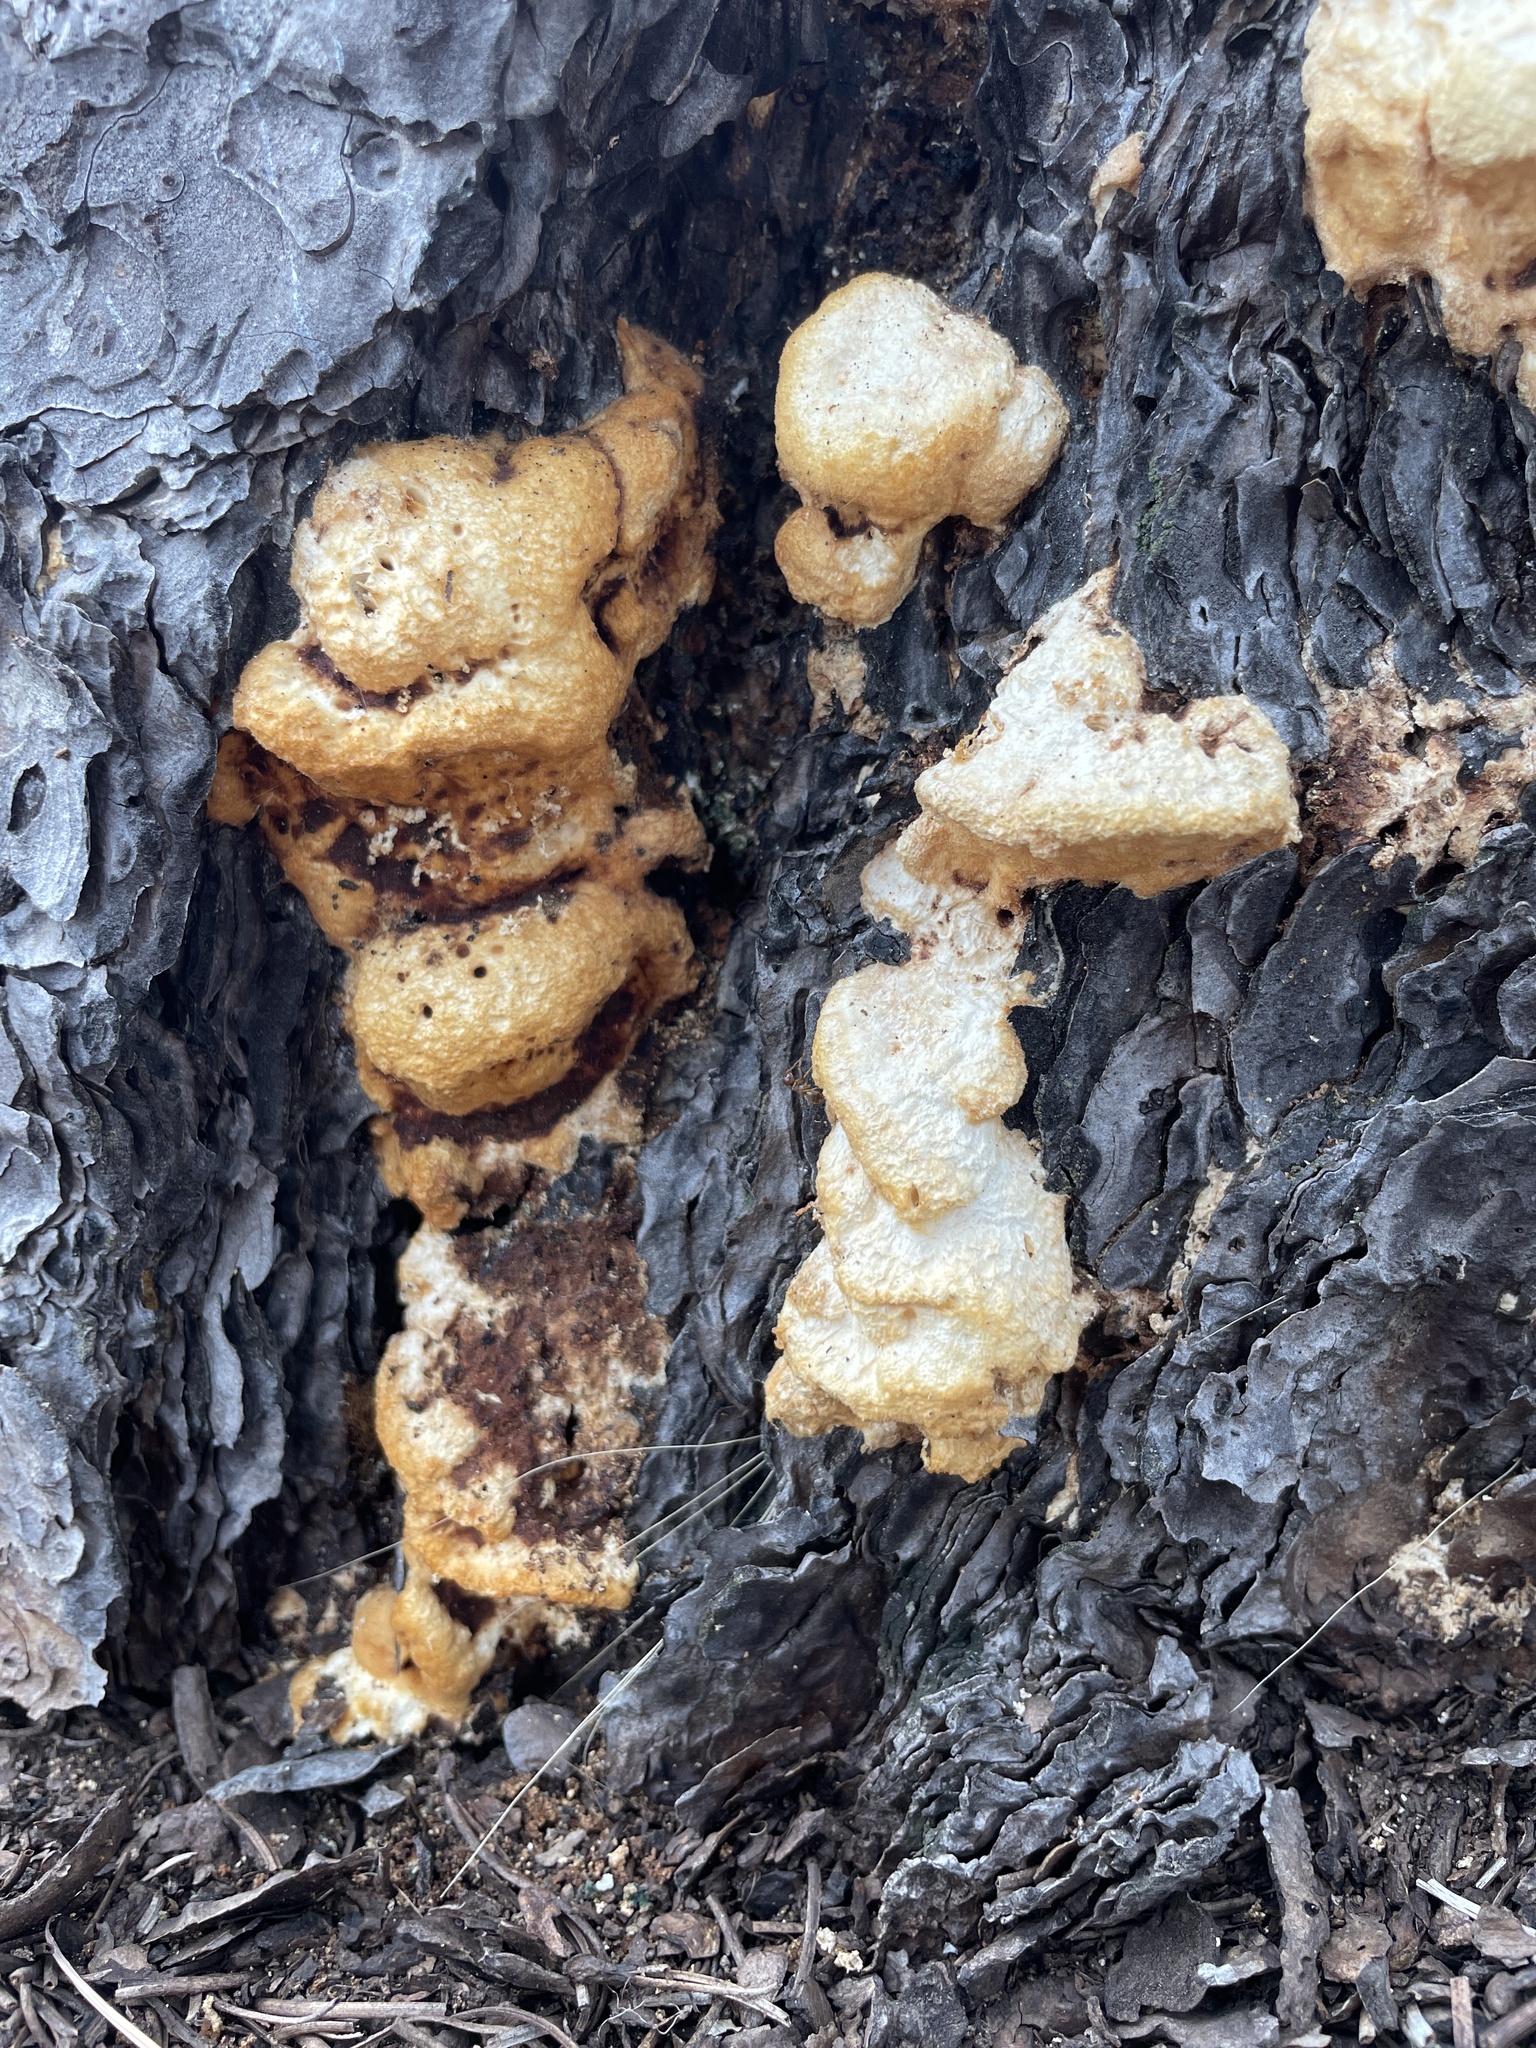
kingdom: Fungi
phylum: Basidiomycota
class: Agaricomycetes
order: Polyporales
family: Polyporaceae
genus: Dichomitus
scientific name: Dichomitus squalens
